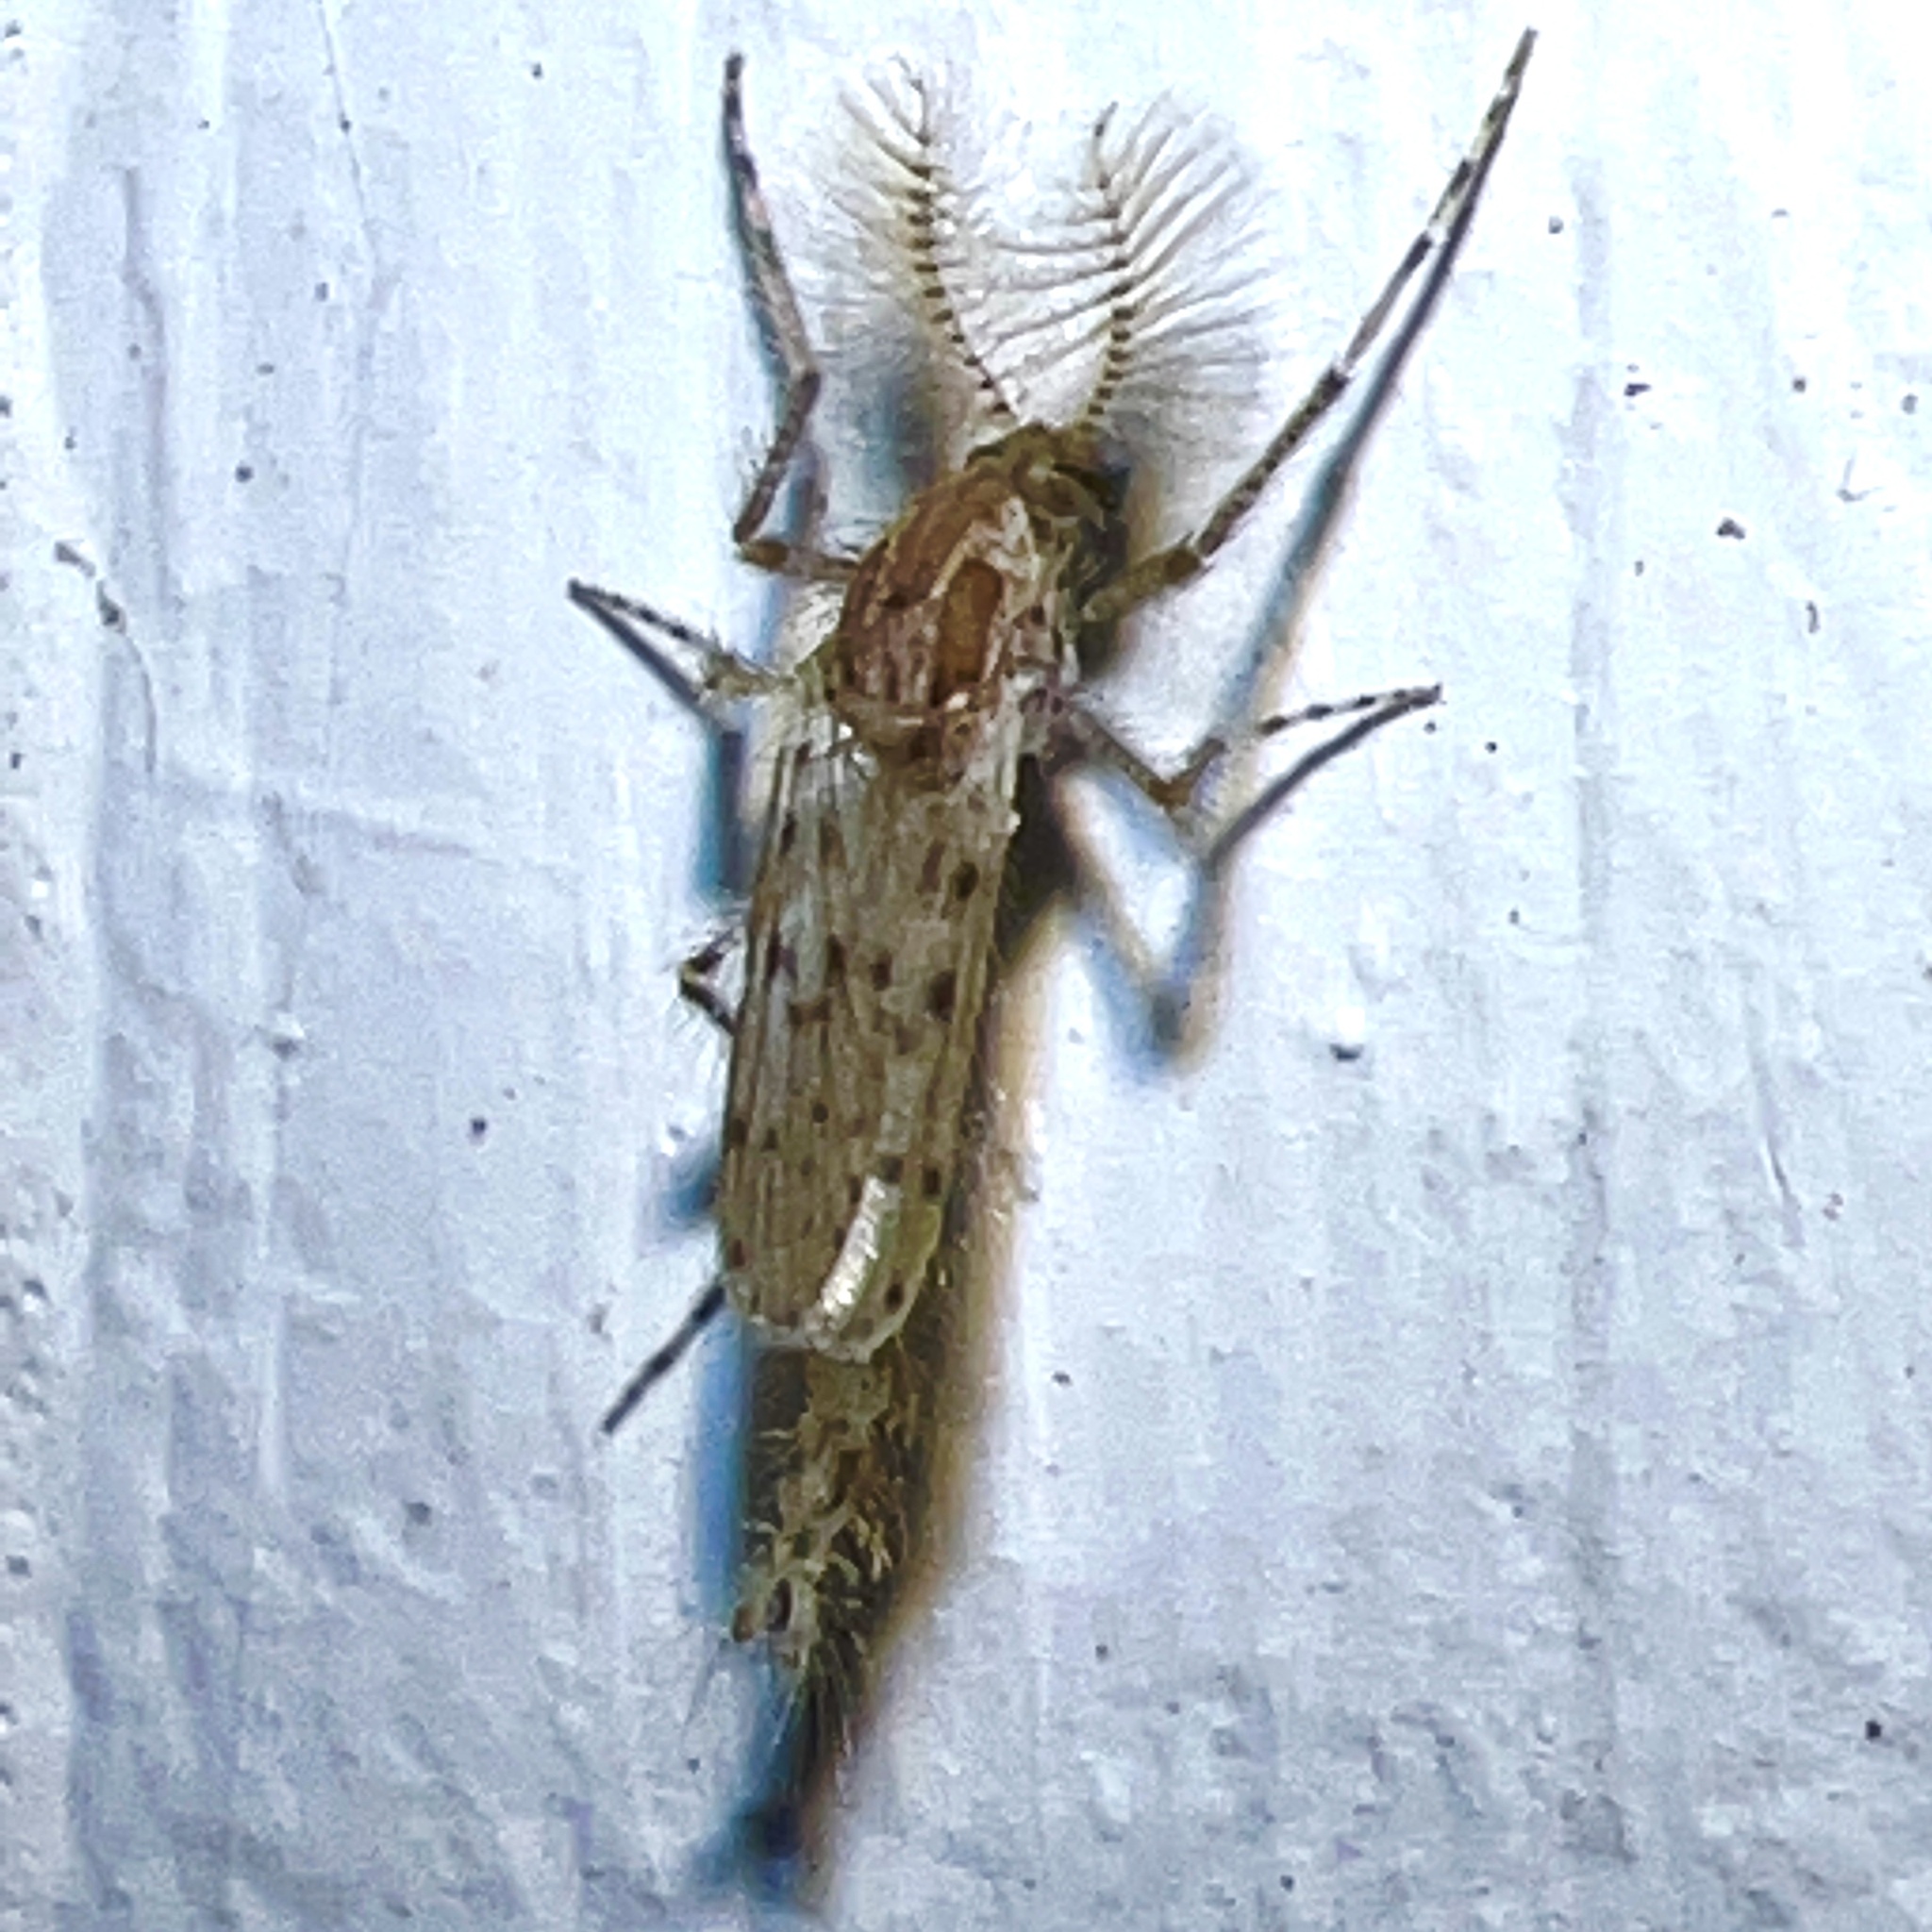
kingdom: Animalia
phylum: Arthropoda
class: Insecta
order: Diptera
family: Chaoboridae
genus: Chaoborus
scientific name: Chaoborus punctipennis
